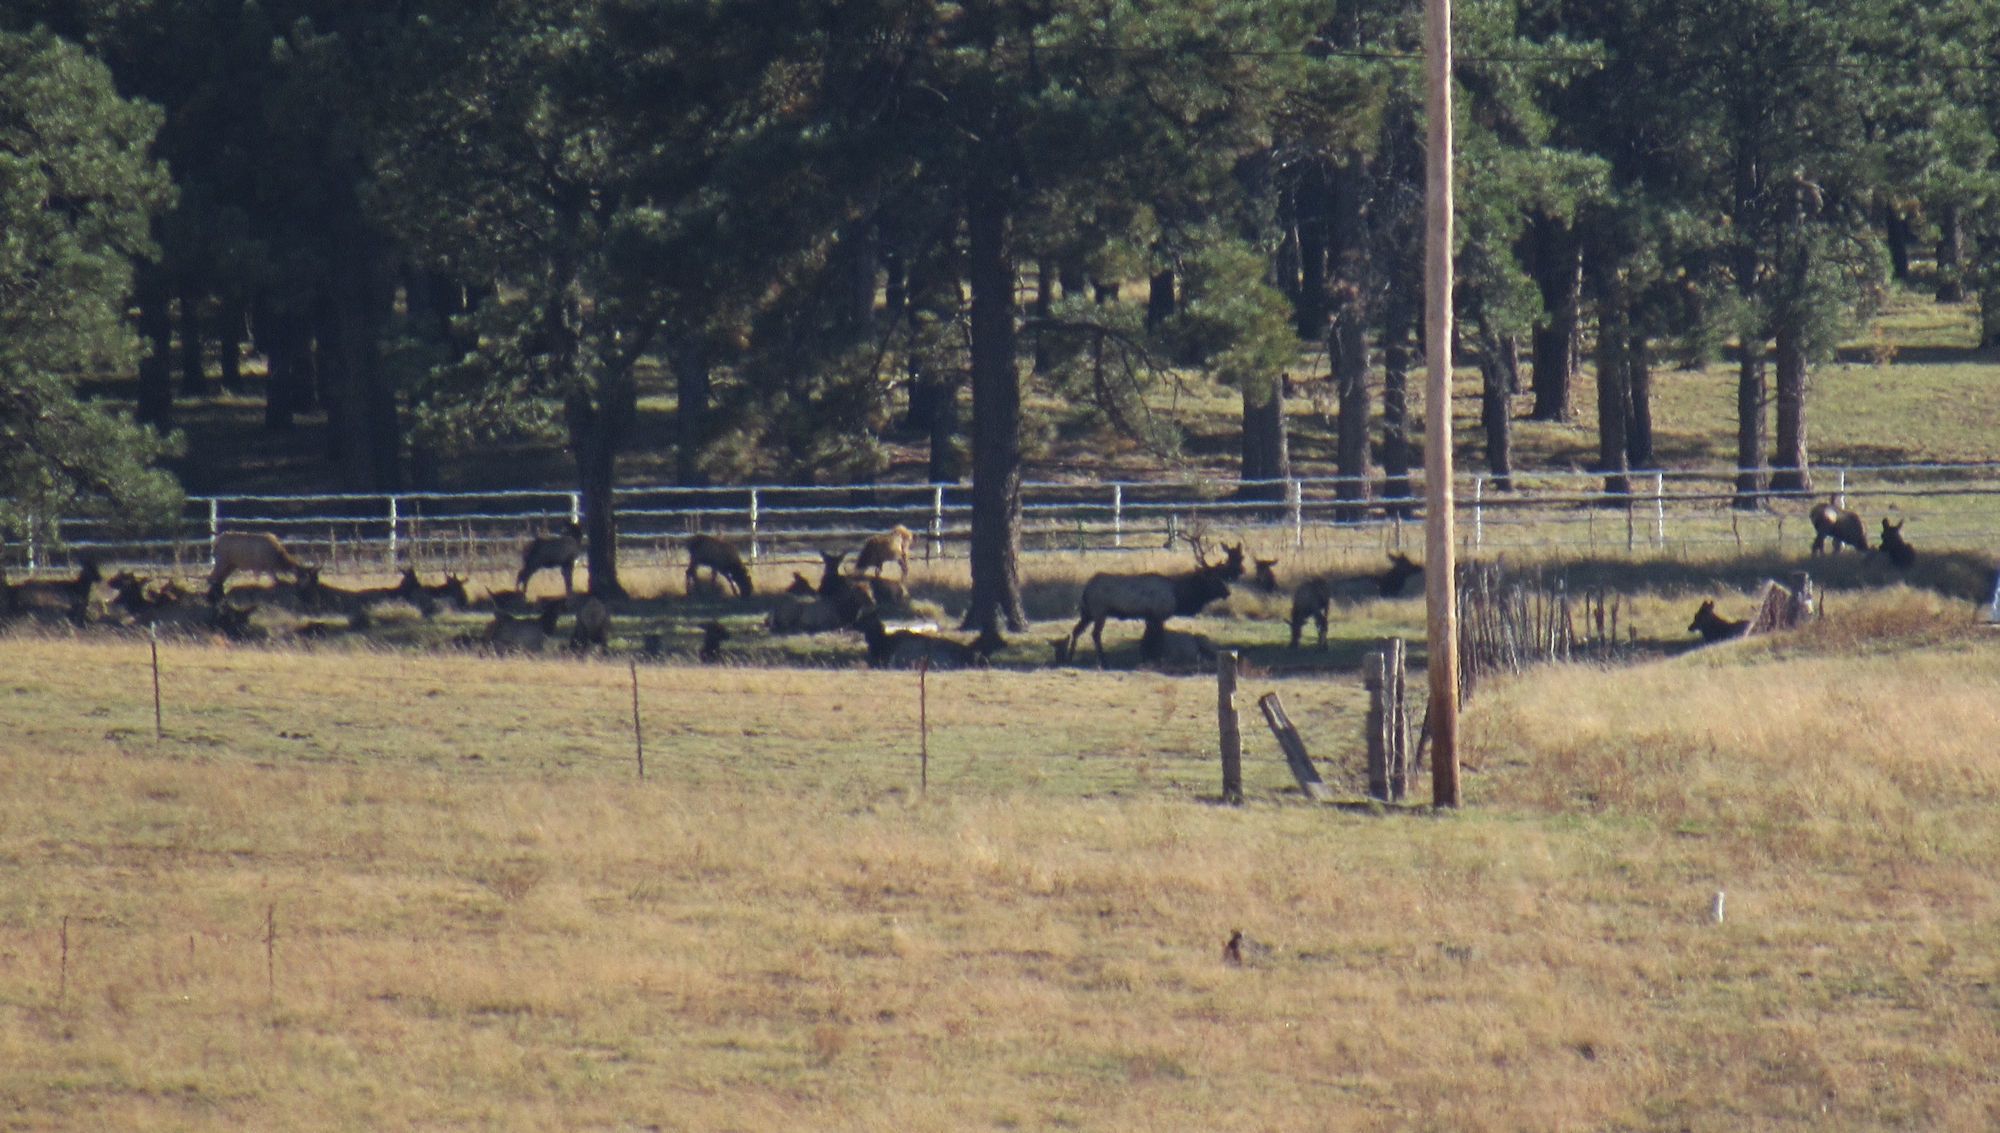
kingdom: Animalia
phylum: Chordata
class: Mammalia
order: Artiodactyla
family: Cervidae
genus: Cervus
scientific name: Cervus elaphus
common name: Red deer
